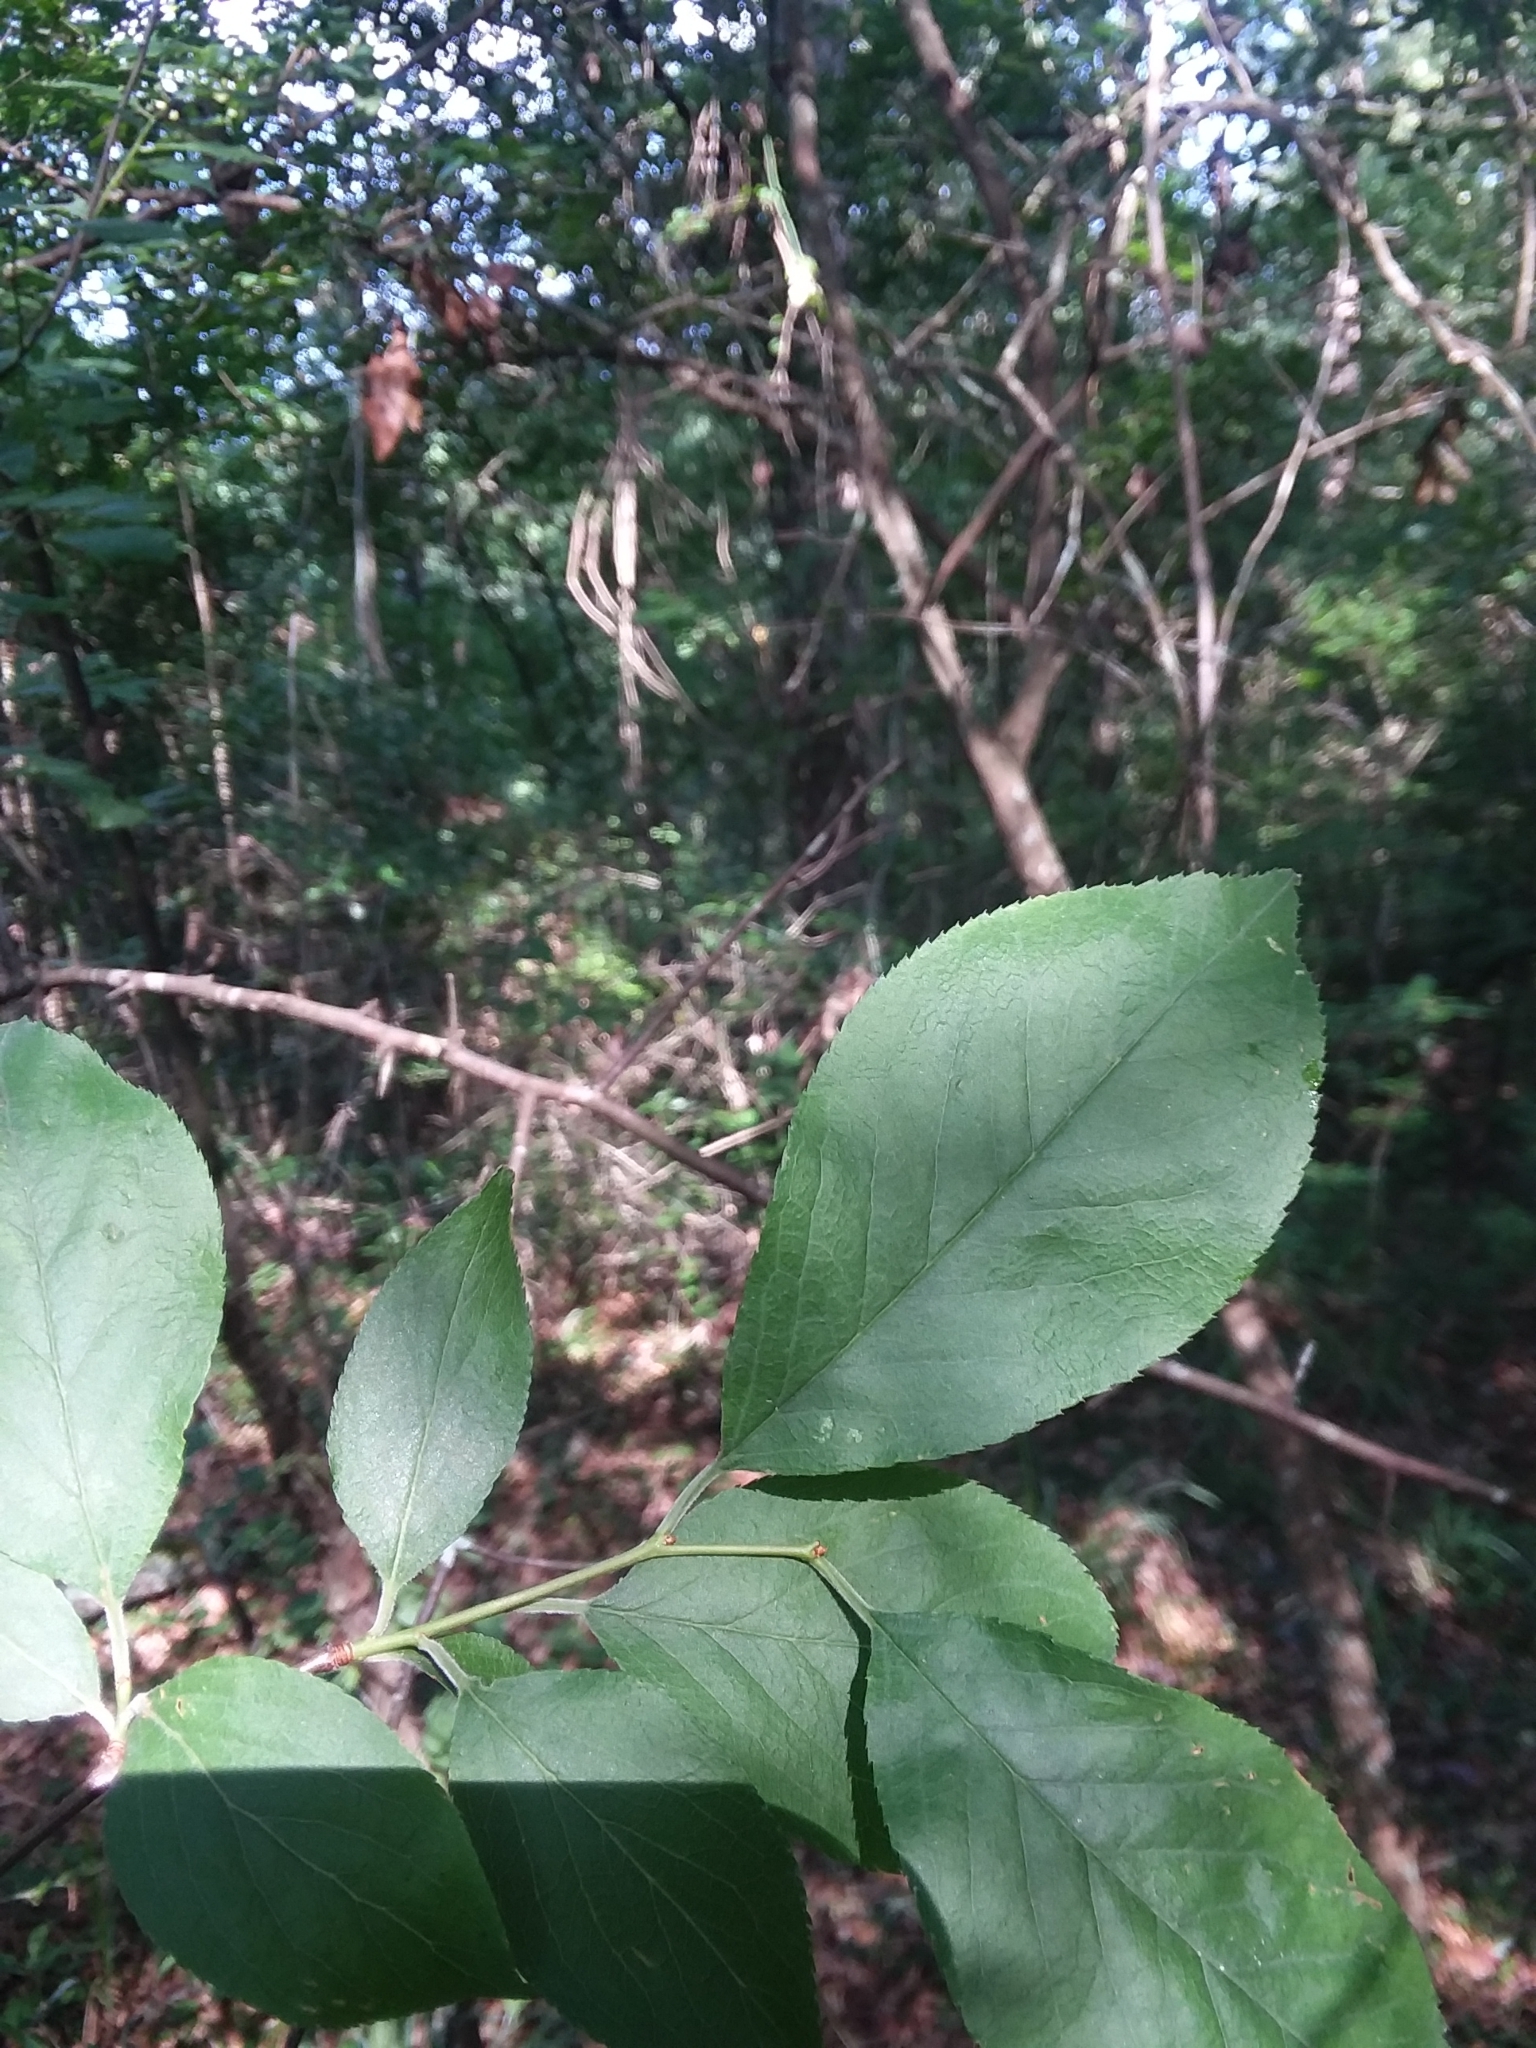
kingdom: Plantae
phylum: Tracheophyta
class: Magnoliopsida
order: Rosales
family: Rosaceae
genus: Prunus
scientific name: Prunus umbellata
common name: Allegheny plum
